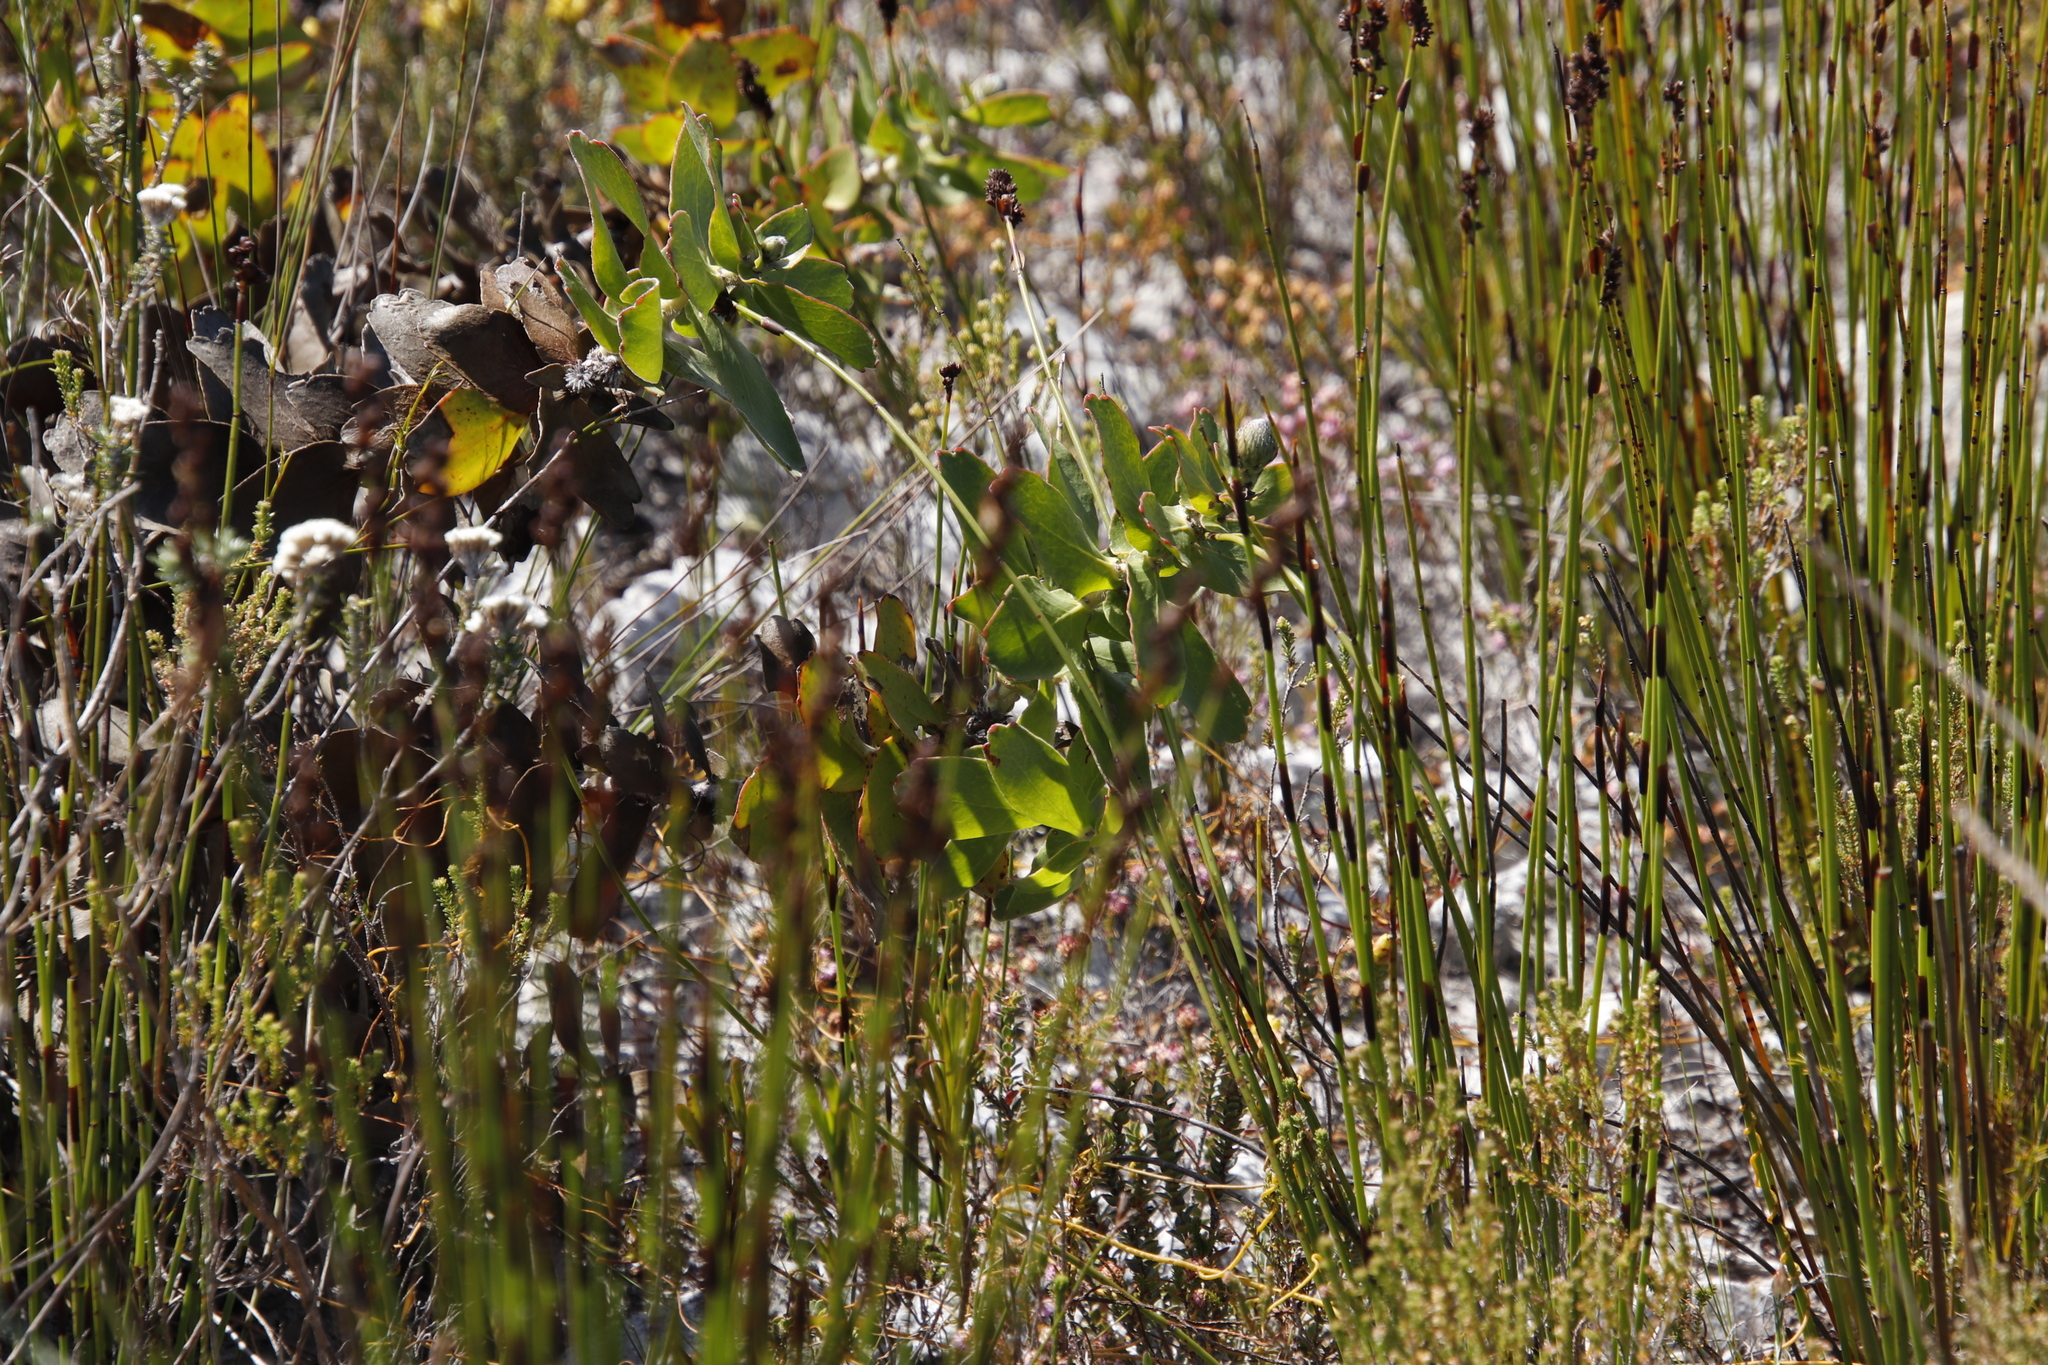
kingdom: Plantae
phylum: Tracheophyta
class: Magnoliopsida
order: Proteales
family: Proteaceae
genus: Leucospermum
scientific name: Leucospermum cordifolium
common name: Red pincushion-protea
